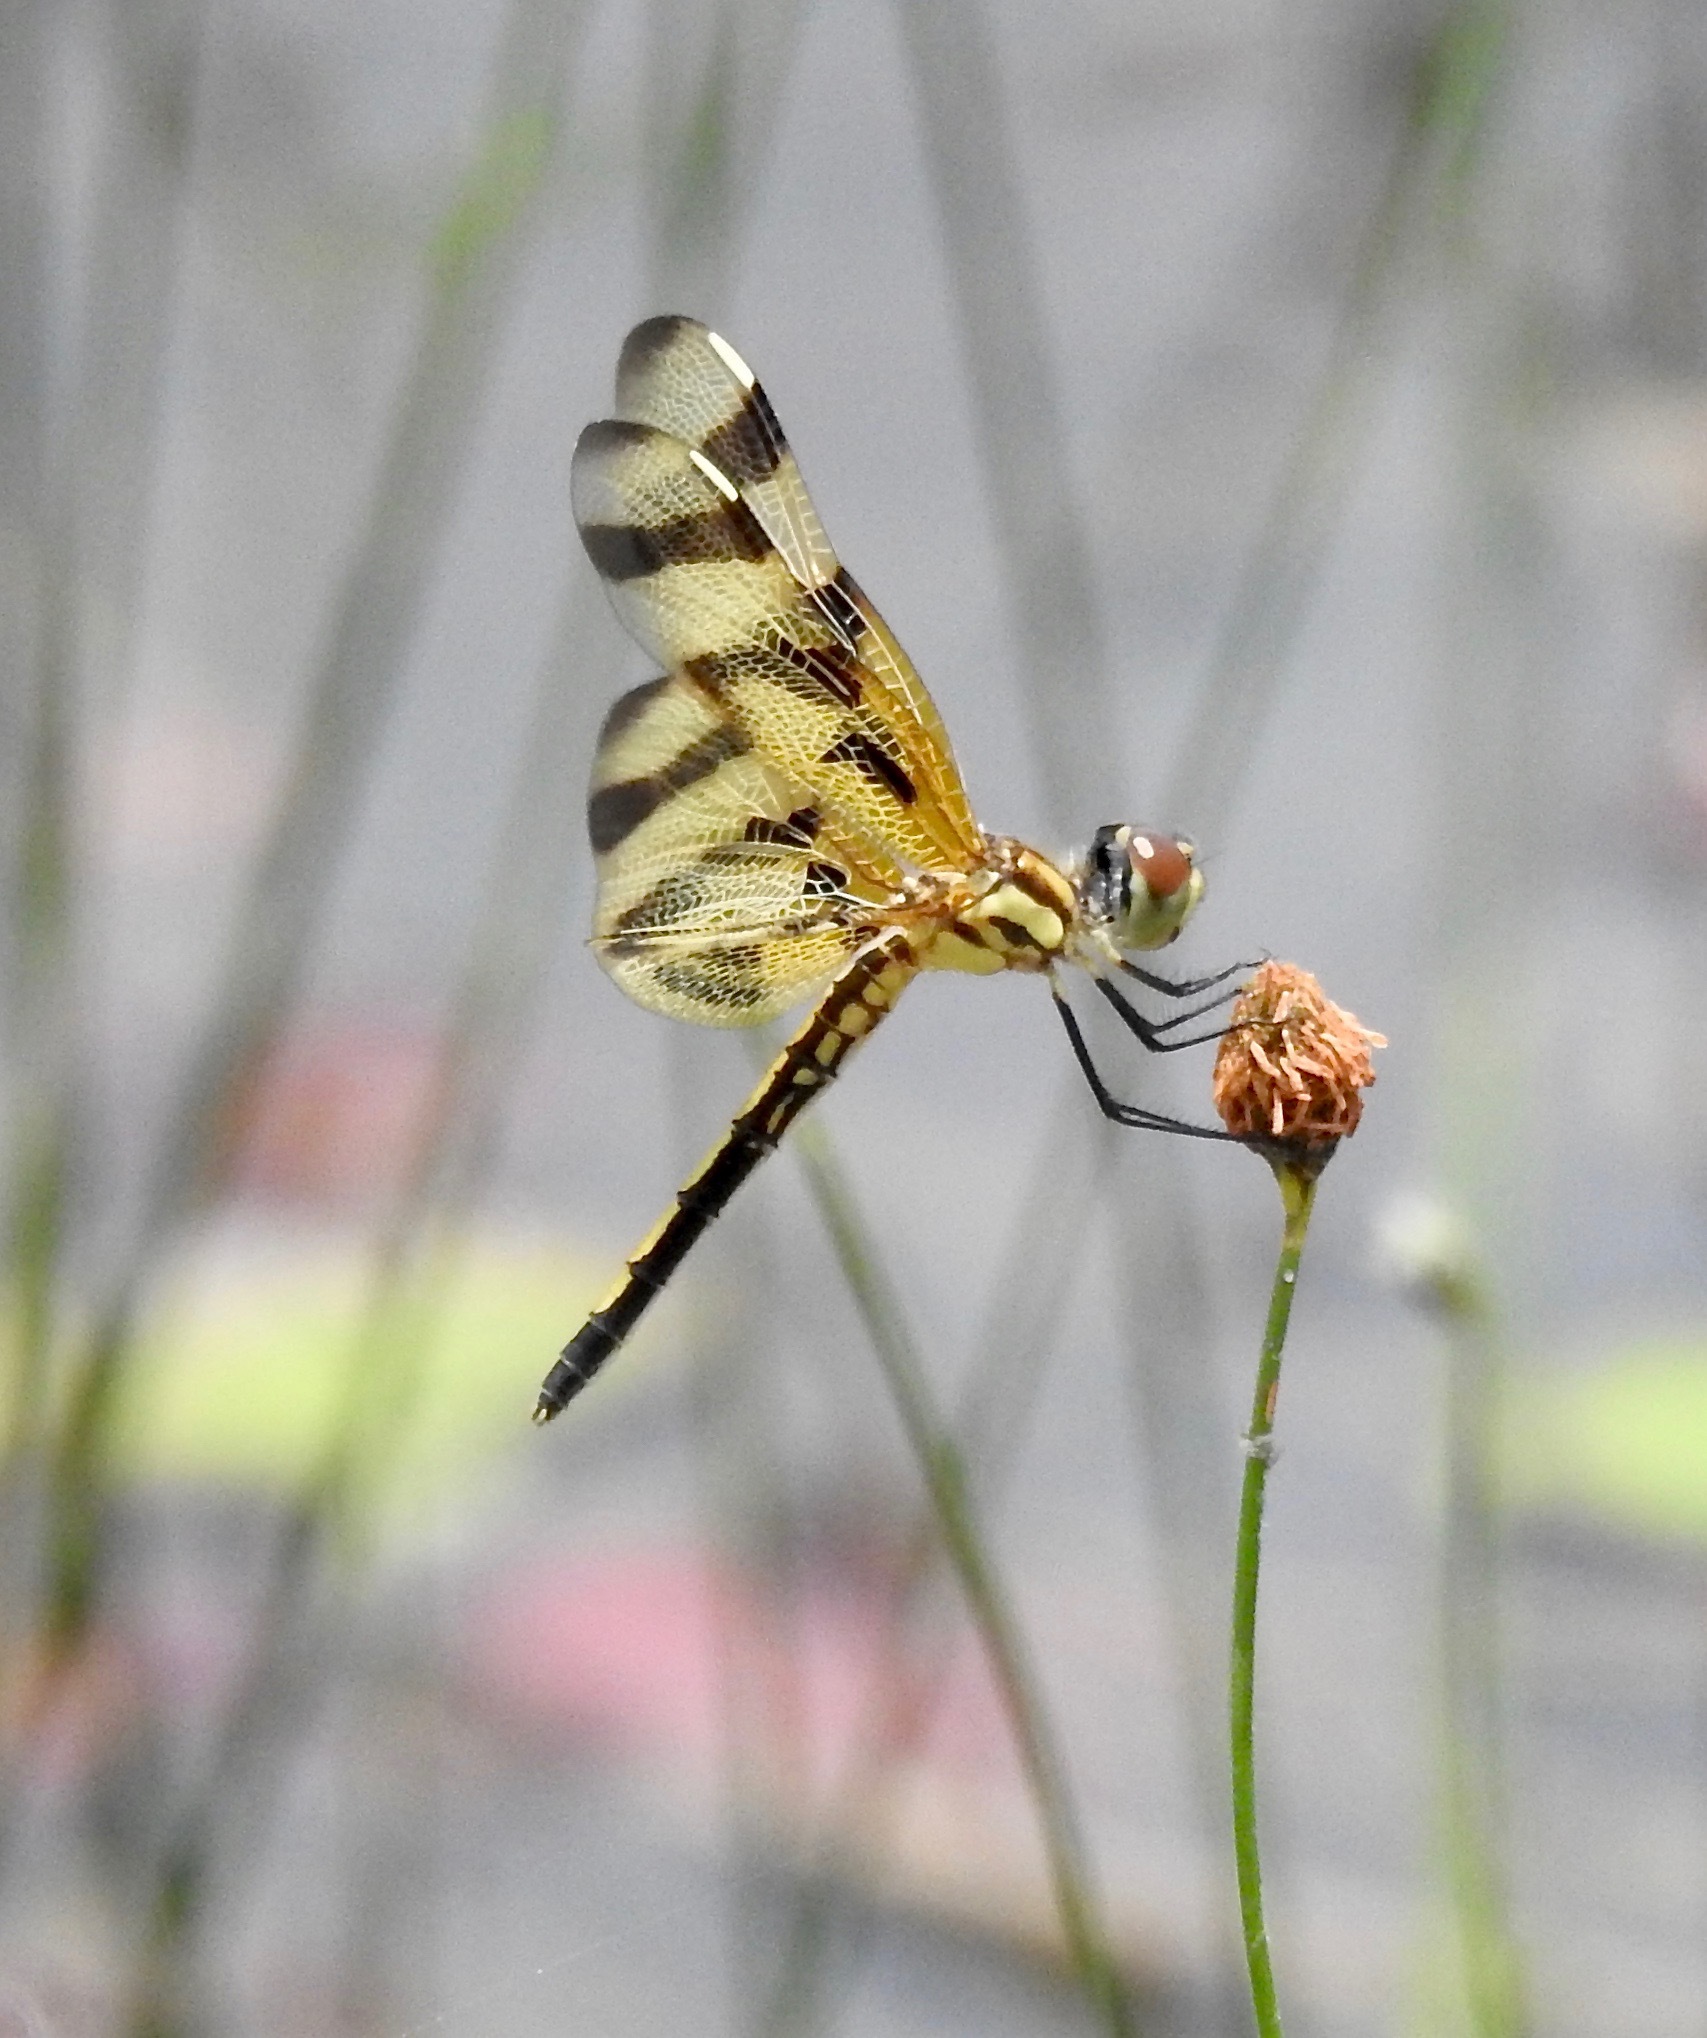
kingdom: Animalia
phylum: Arthropoda
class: Insecta
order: Odonata
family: Libellulidae
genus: Celithemis
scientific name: Celithemis eponina
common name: Halloween pennant
